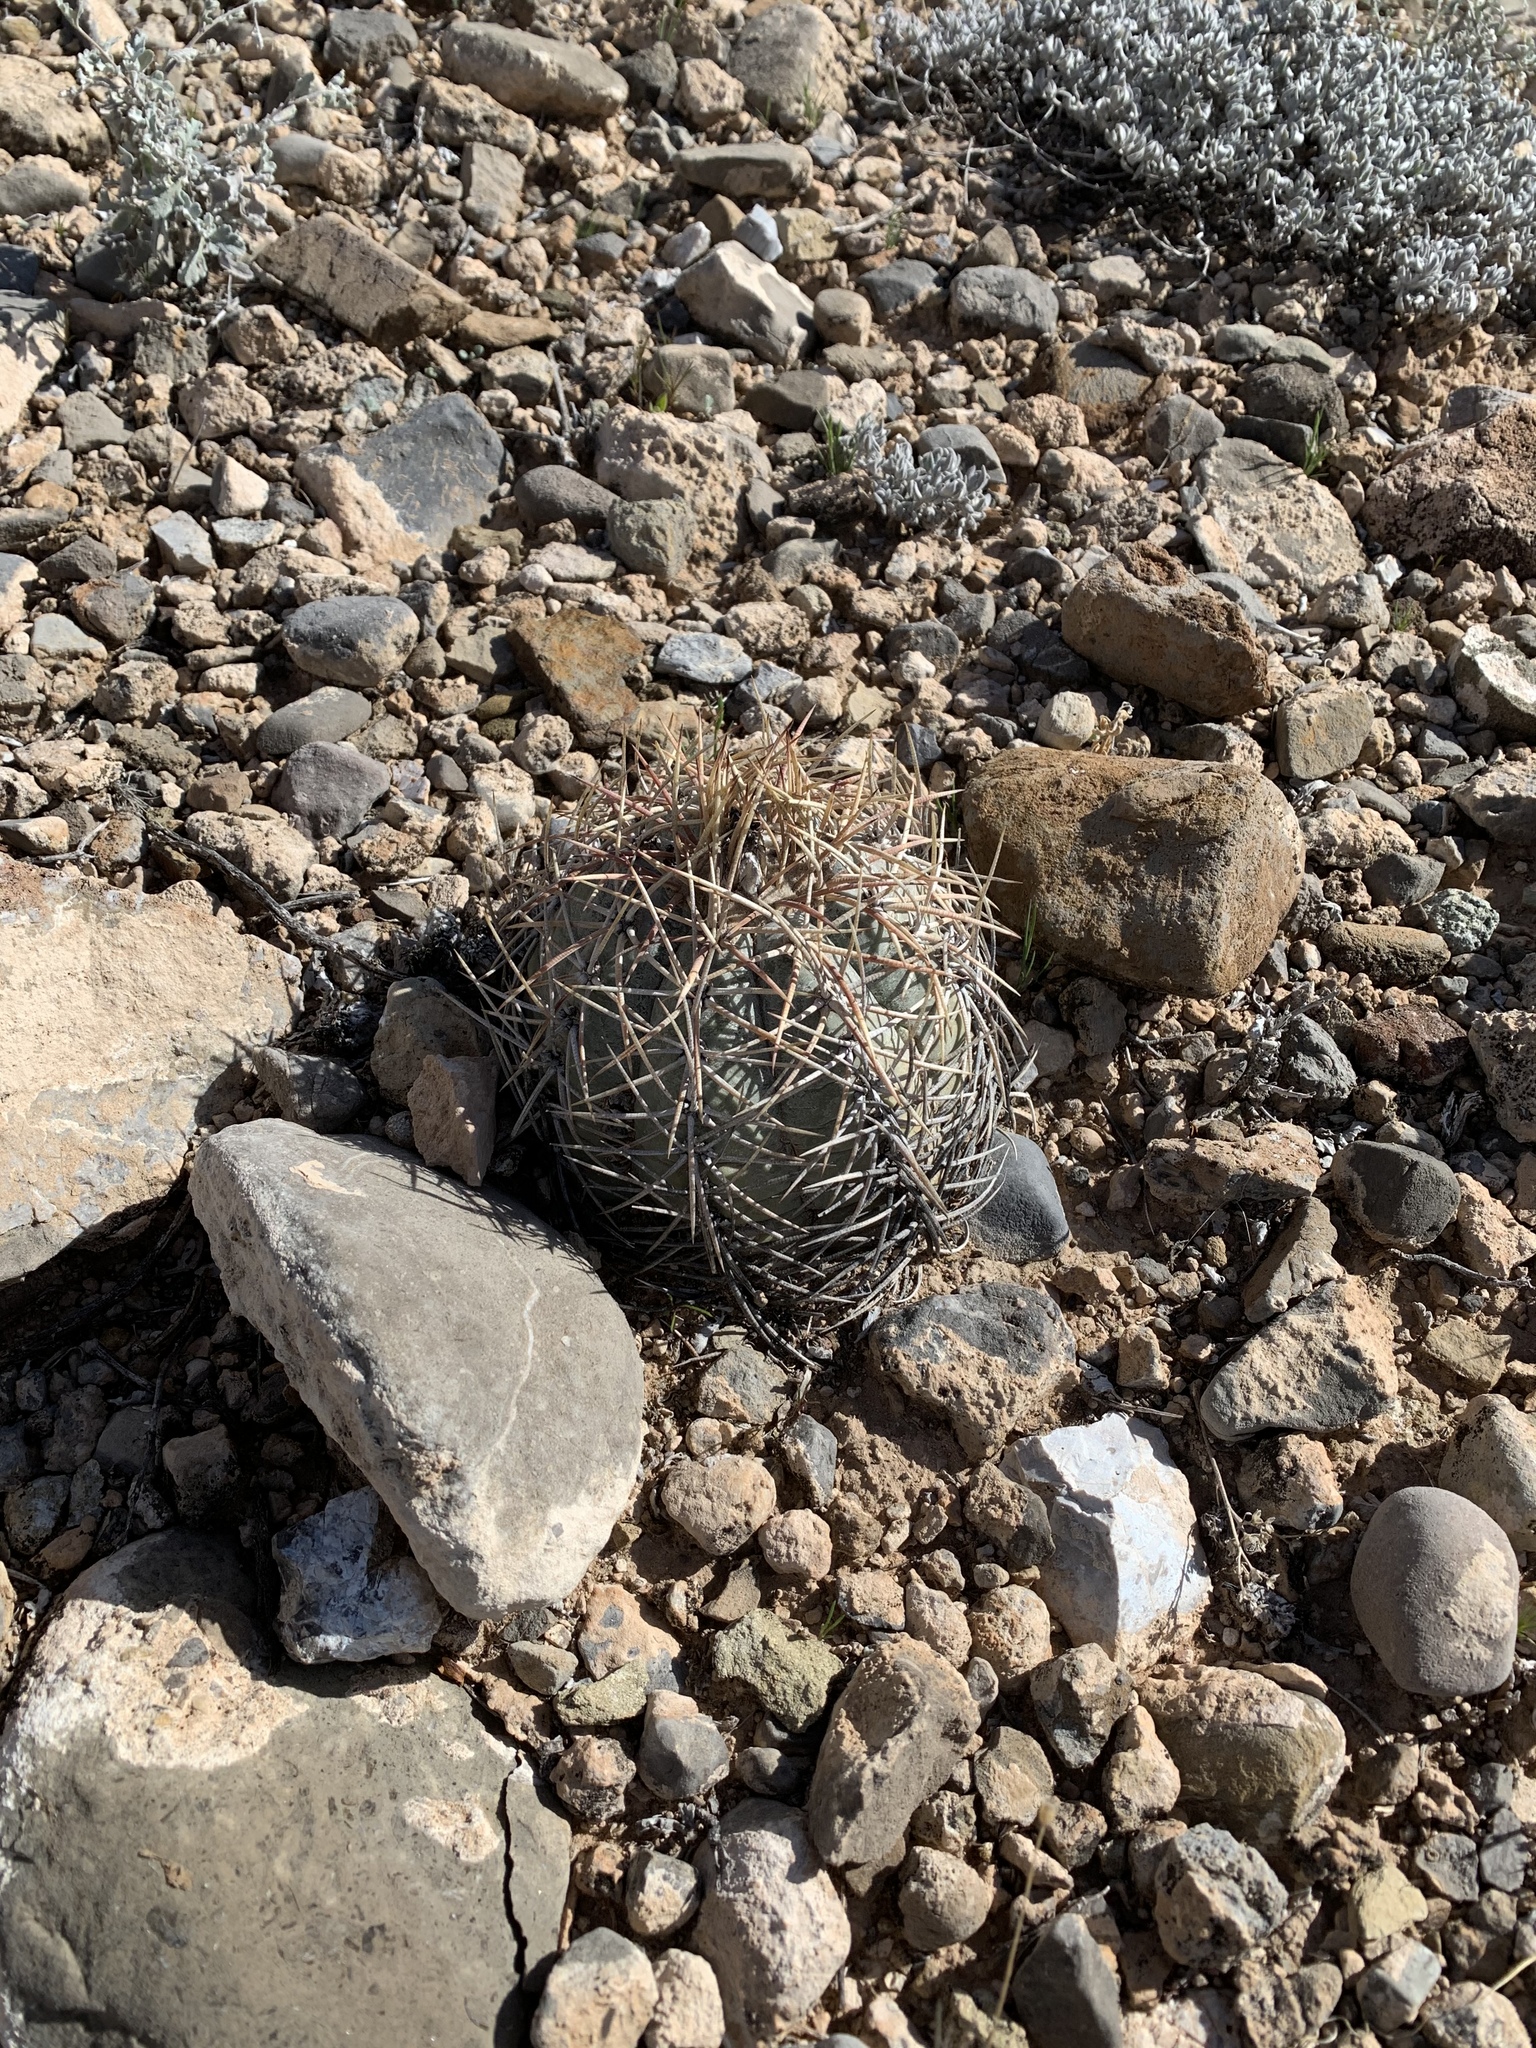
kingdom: Plantae
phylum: Tracheophyta
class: Magnoliopsida
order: Caryophyllales
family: Cactaceae
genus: Echinocactus
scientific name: Echinocactus horizonthalonius
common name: Devilshead
